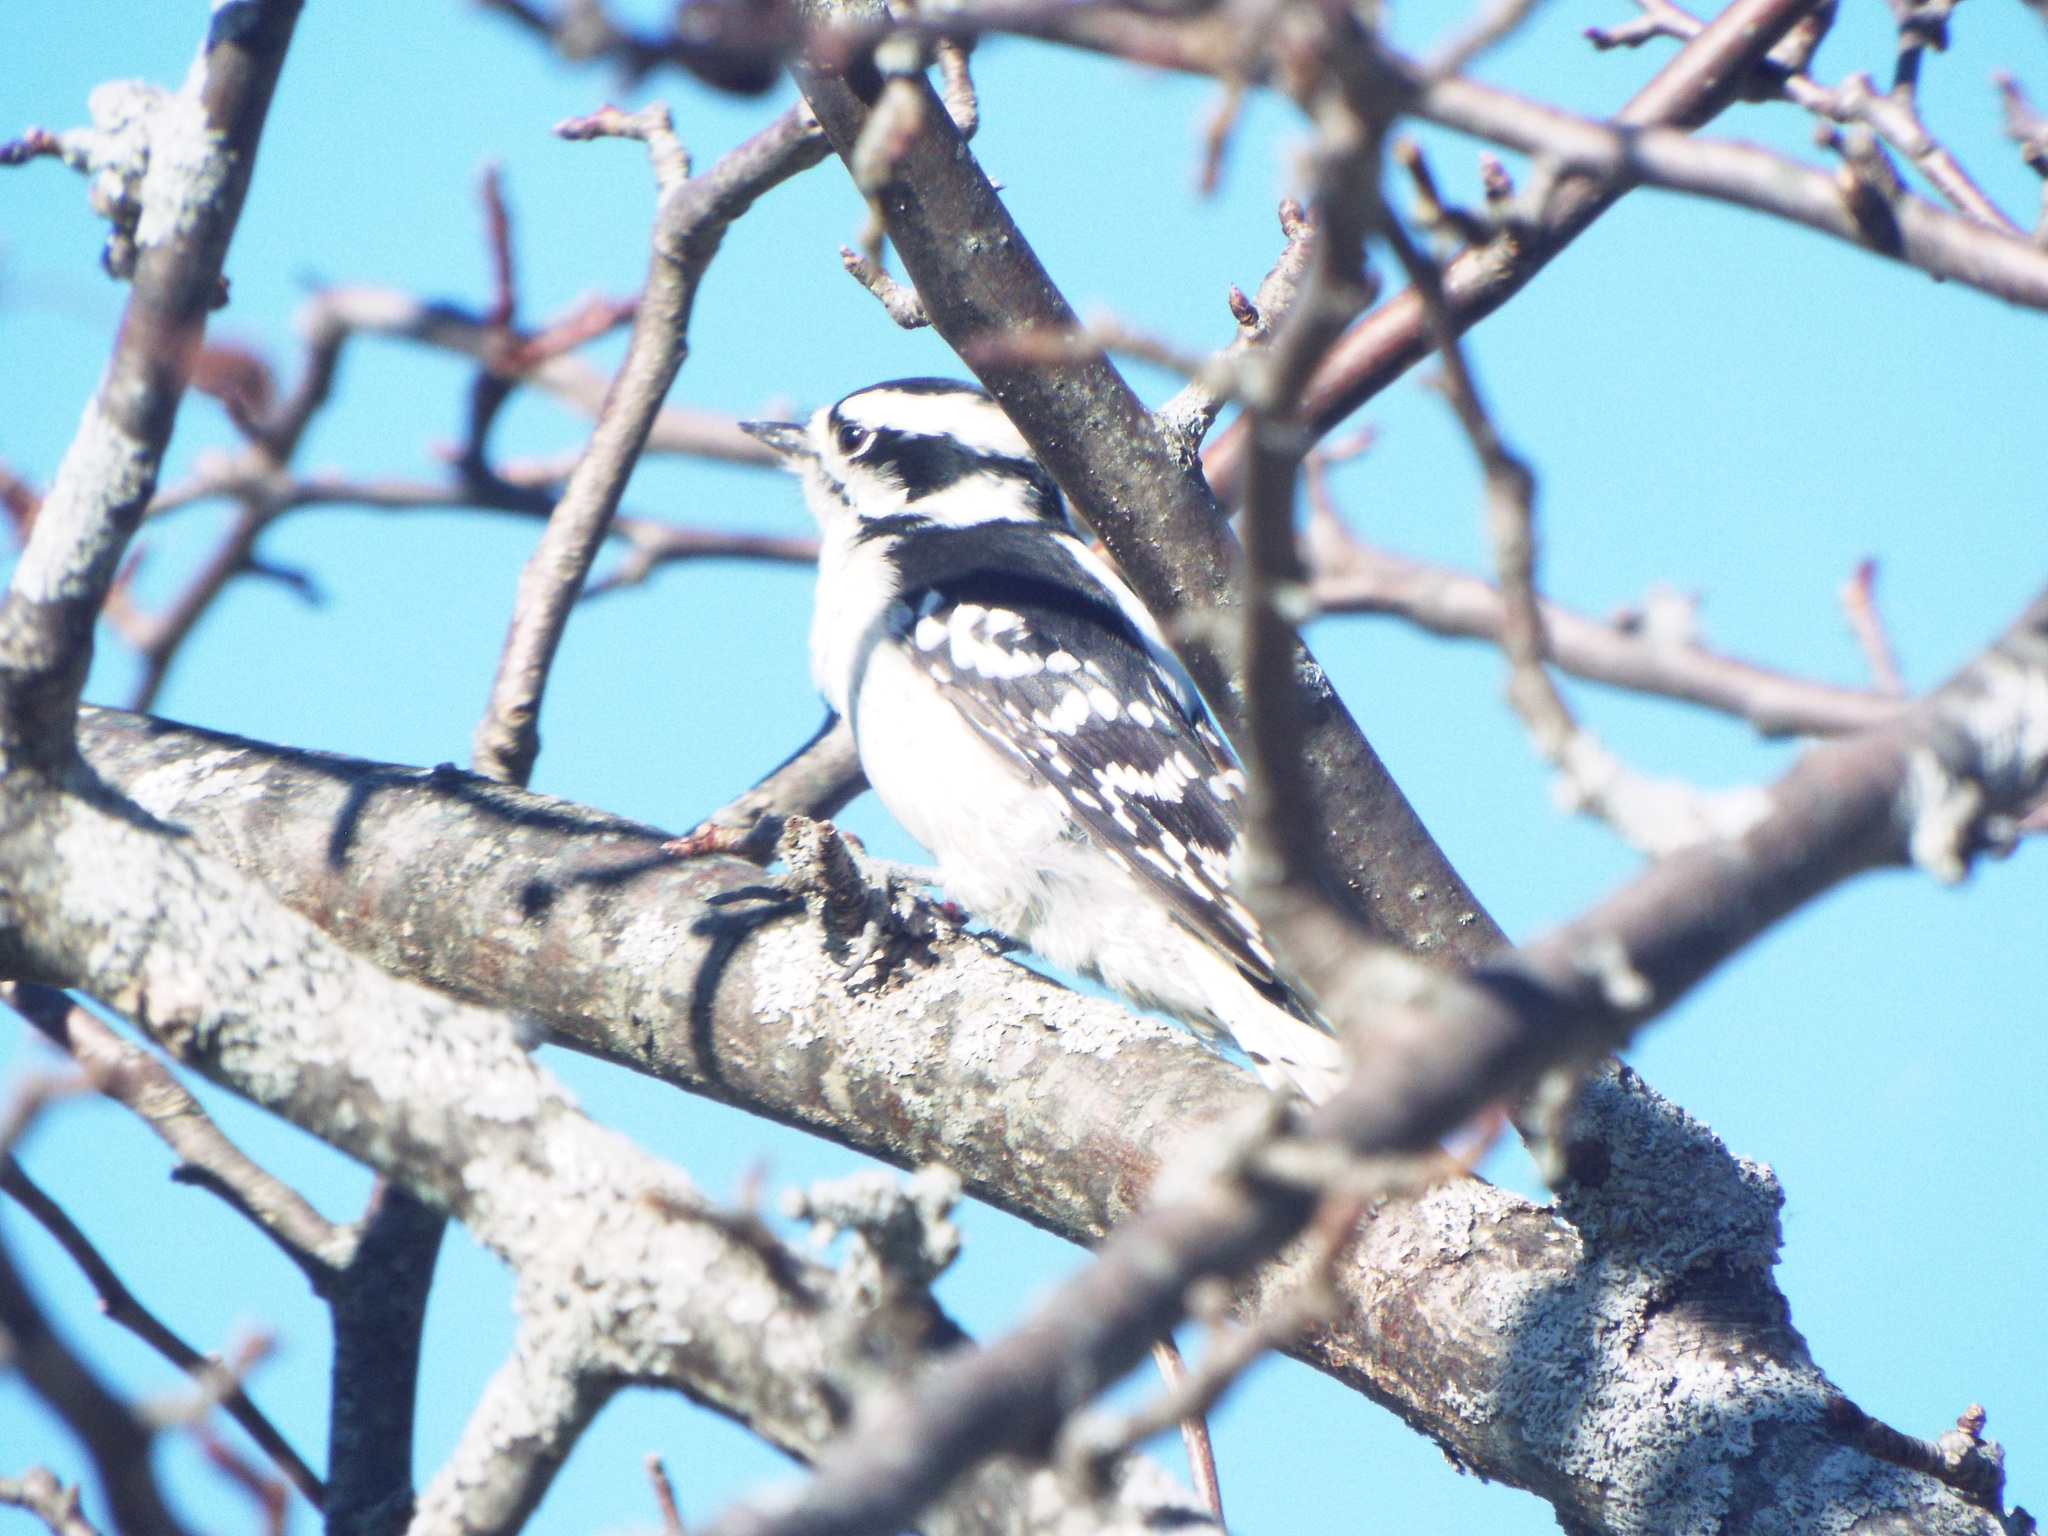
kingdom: Animalia
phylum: Chordata
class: Aves
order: Piciformes
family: Picidae
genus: Dryobates
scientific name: Dryobates pubescens
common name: Downy woodpecker
